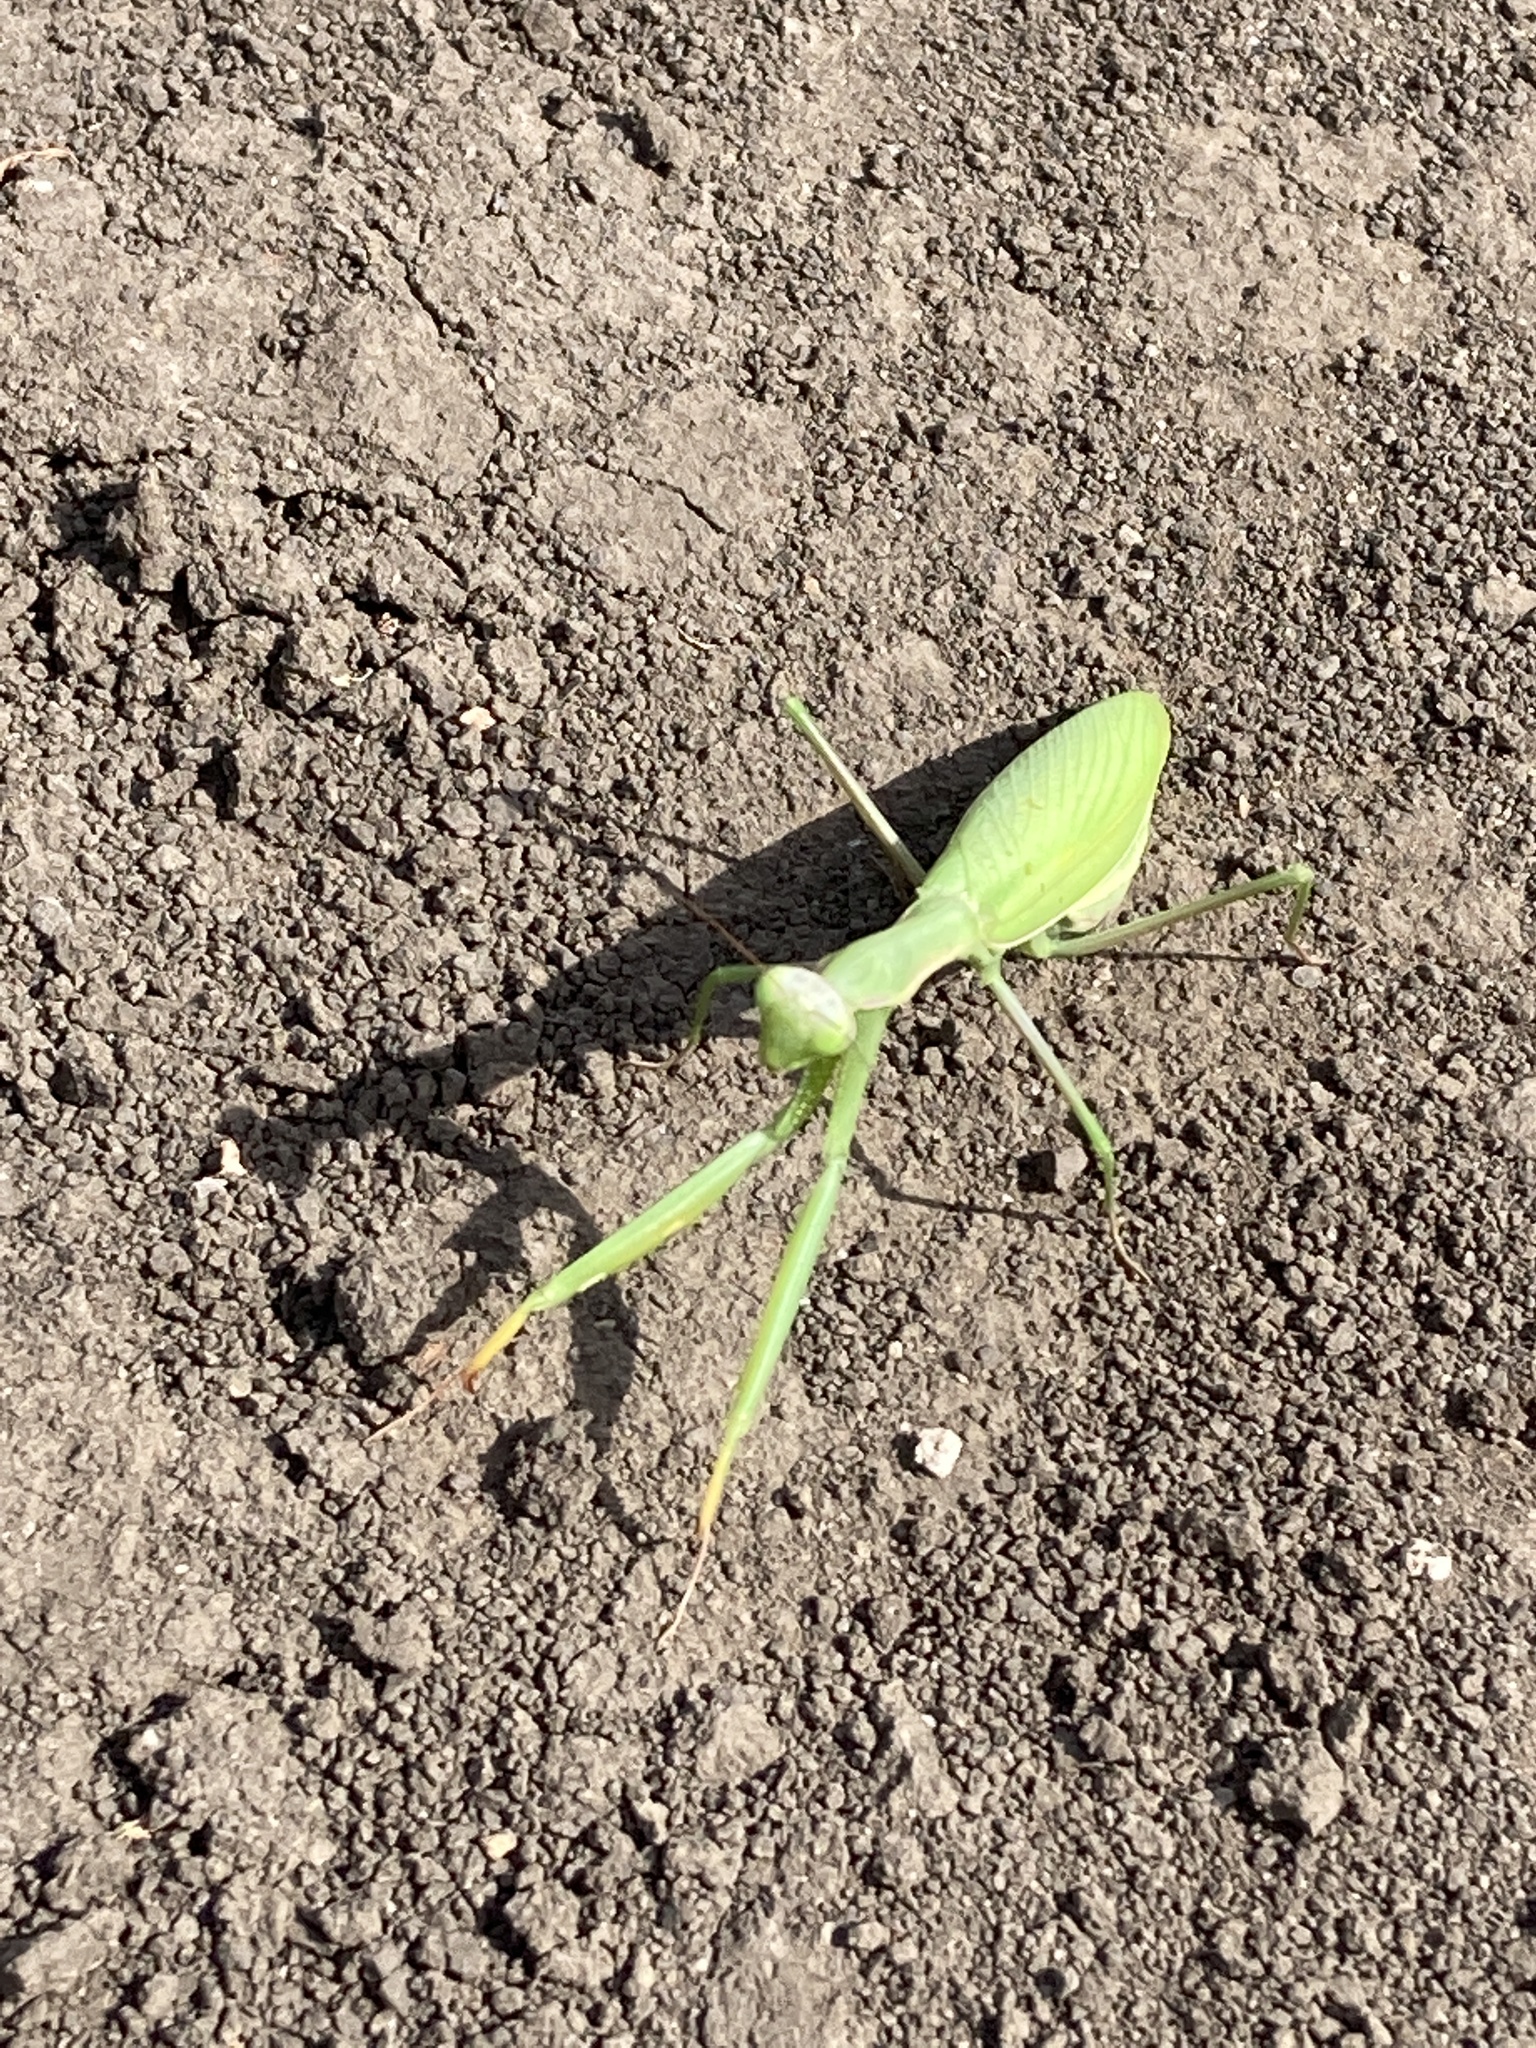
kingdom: Animalia
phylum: Arthropoda
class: Insecta
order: Mantodea
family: Mantidae
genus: Mantis
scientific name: Mantis religiosa
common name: Praying mantis
